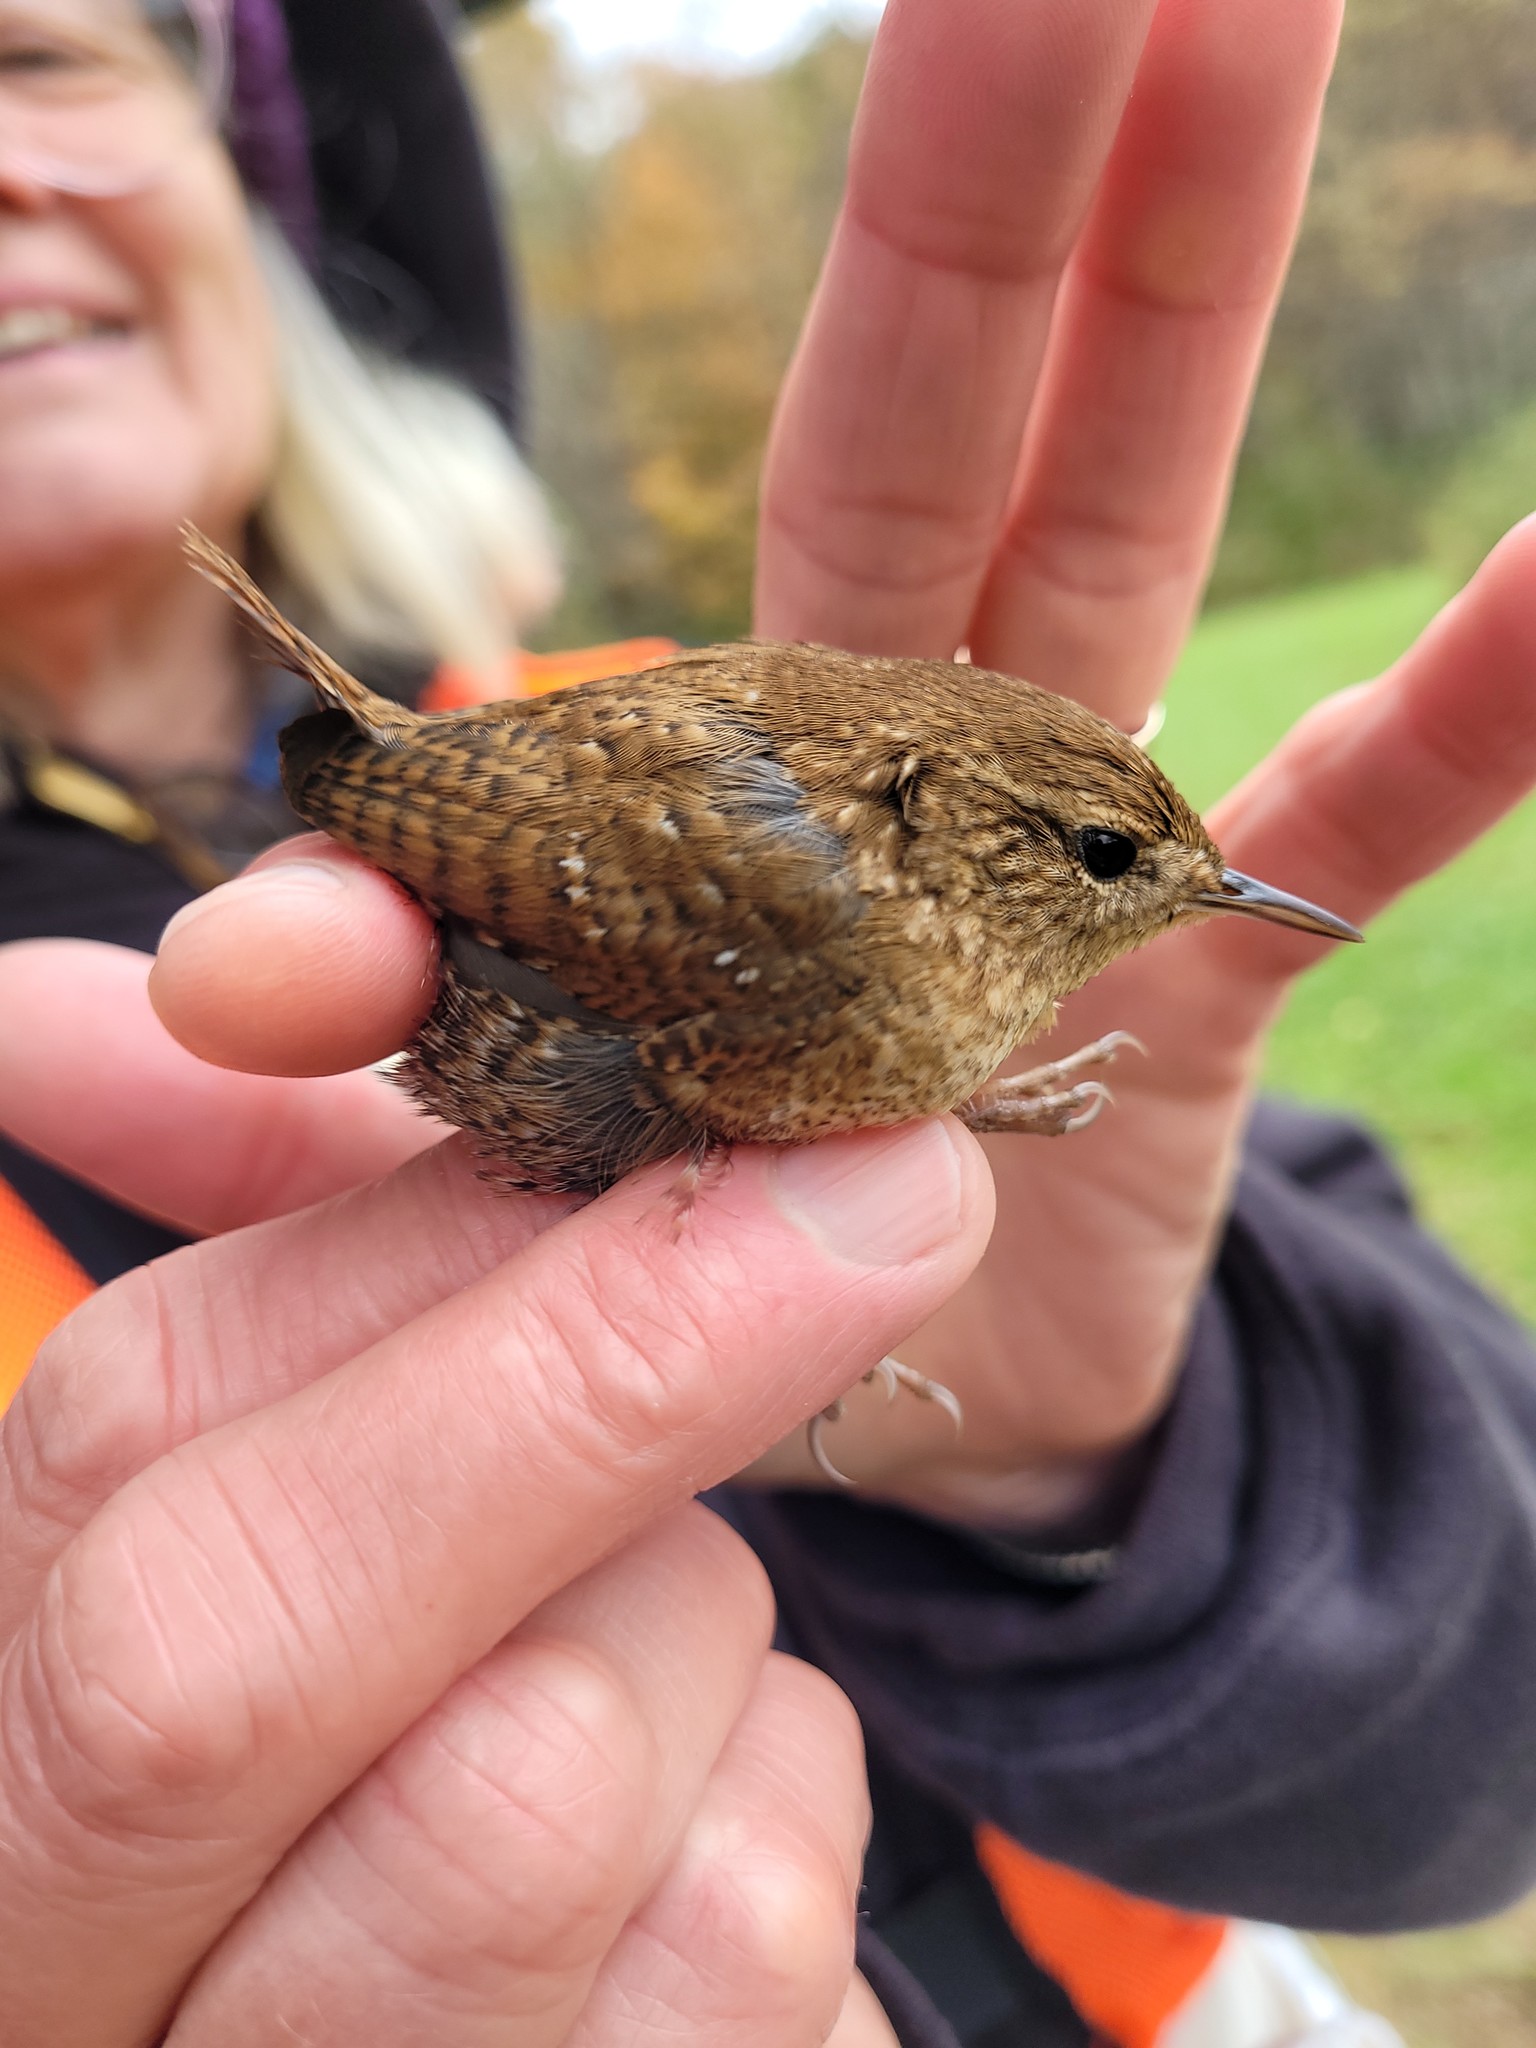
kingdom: Animalia
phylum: Chordata
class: Aves
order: Passeriformes
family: Troglodytidae
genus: Troglodytes
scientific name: Troglodytes hiemalis
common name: Winter wren
